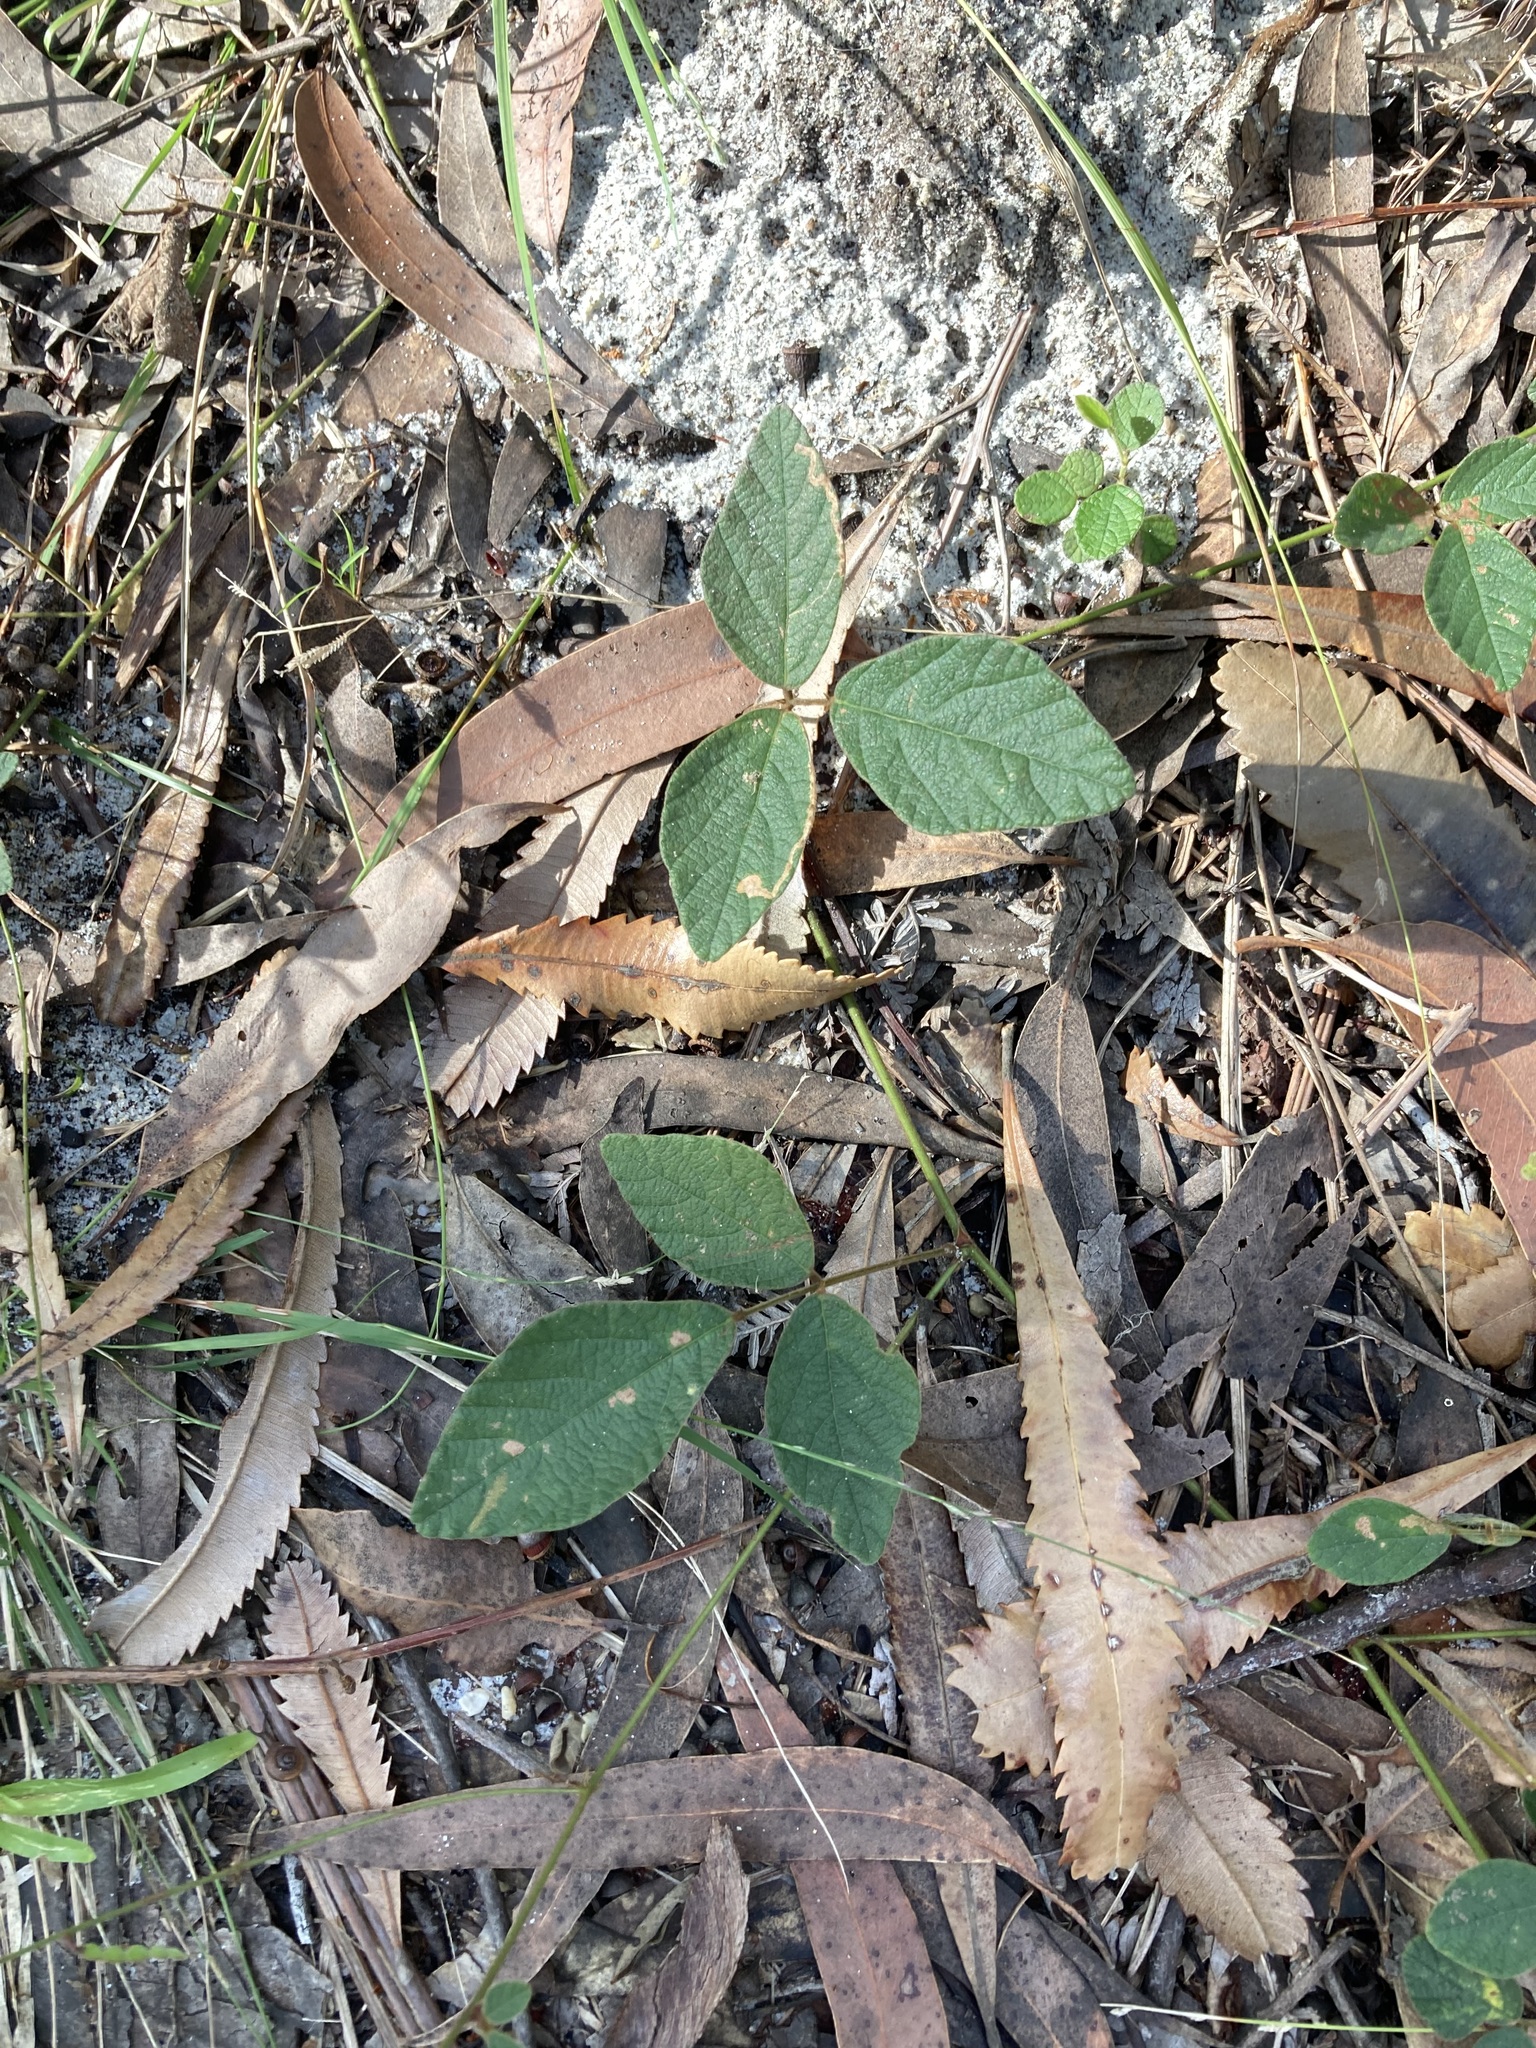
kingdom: Plantae
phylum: Tracheophyta
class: Magnoliopsida
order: Fabales
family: Fabaceae
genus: Maekawaea
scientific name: Maekawaea rhytidophylla
